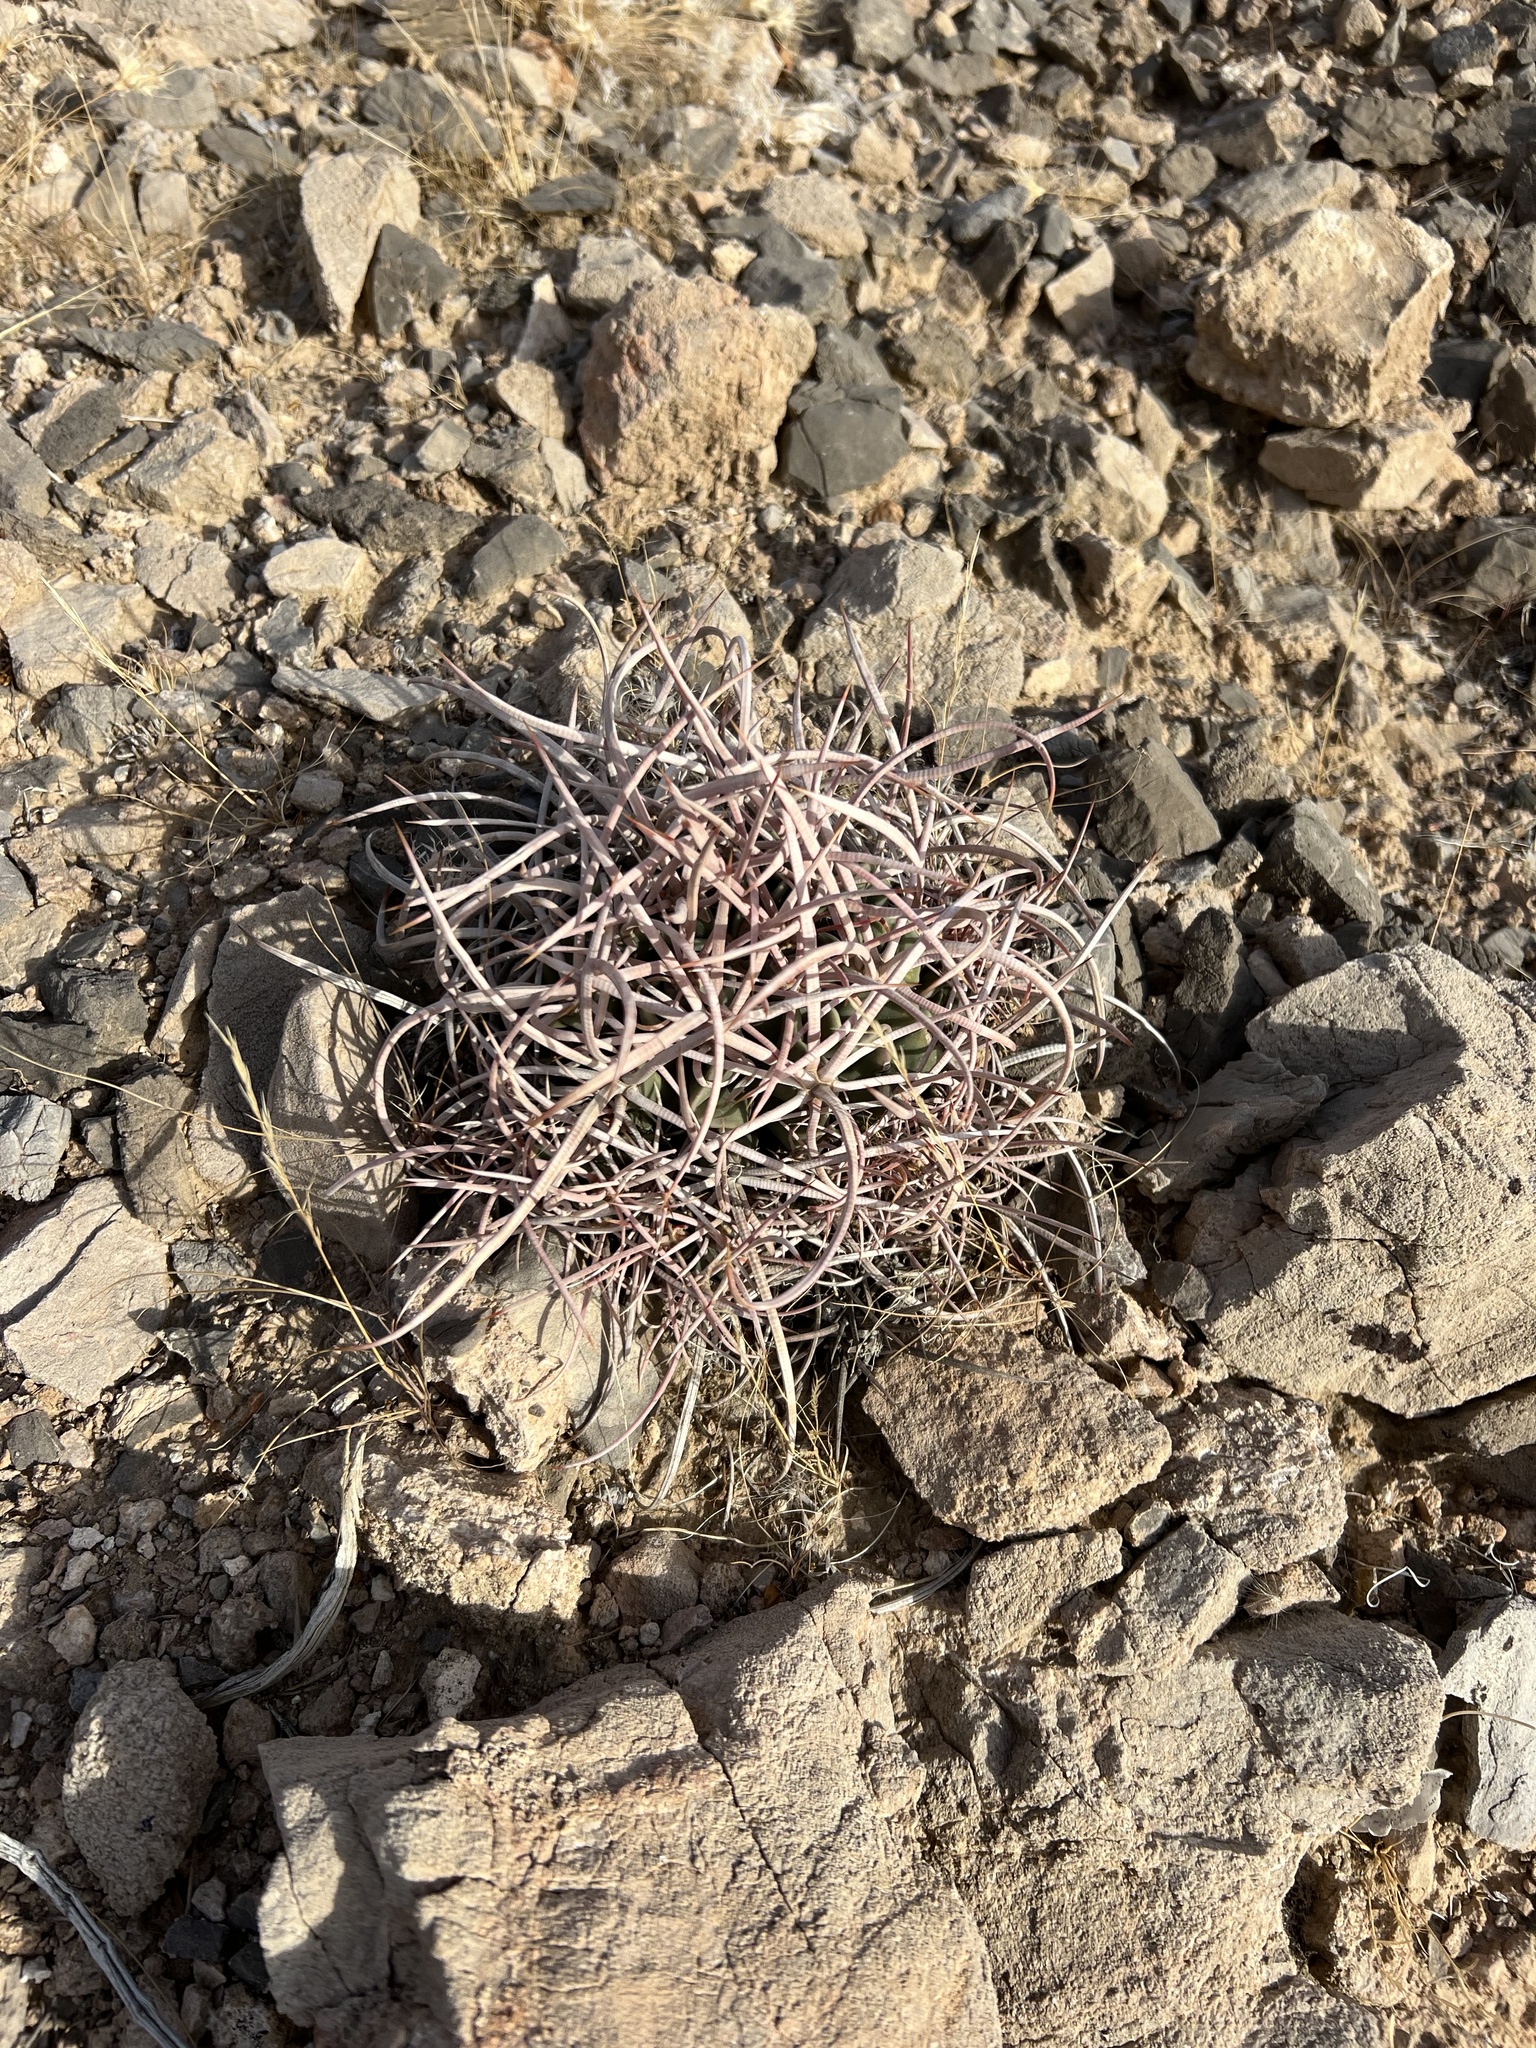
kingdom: Plantae
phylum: Tracheophyta
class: Magnoliopsida
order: Caryophyllales
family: Cactaceae
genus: Echinocactus
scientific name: Echinocactus polycephalus
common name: Cottontop cactus
